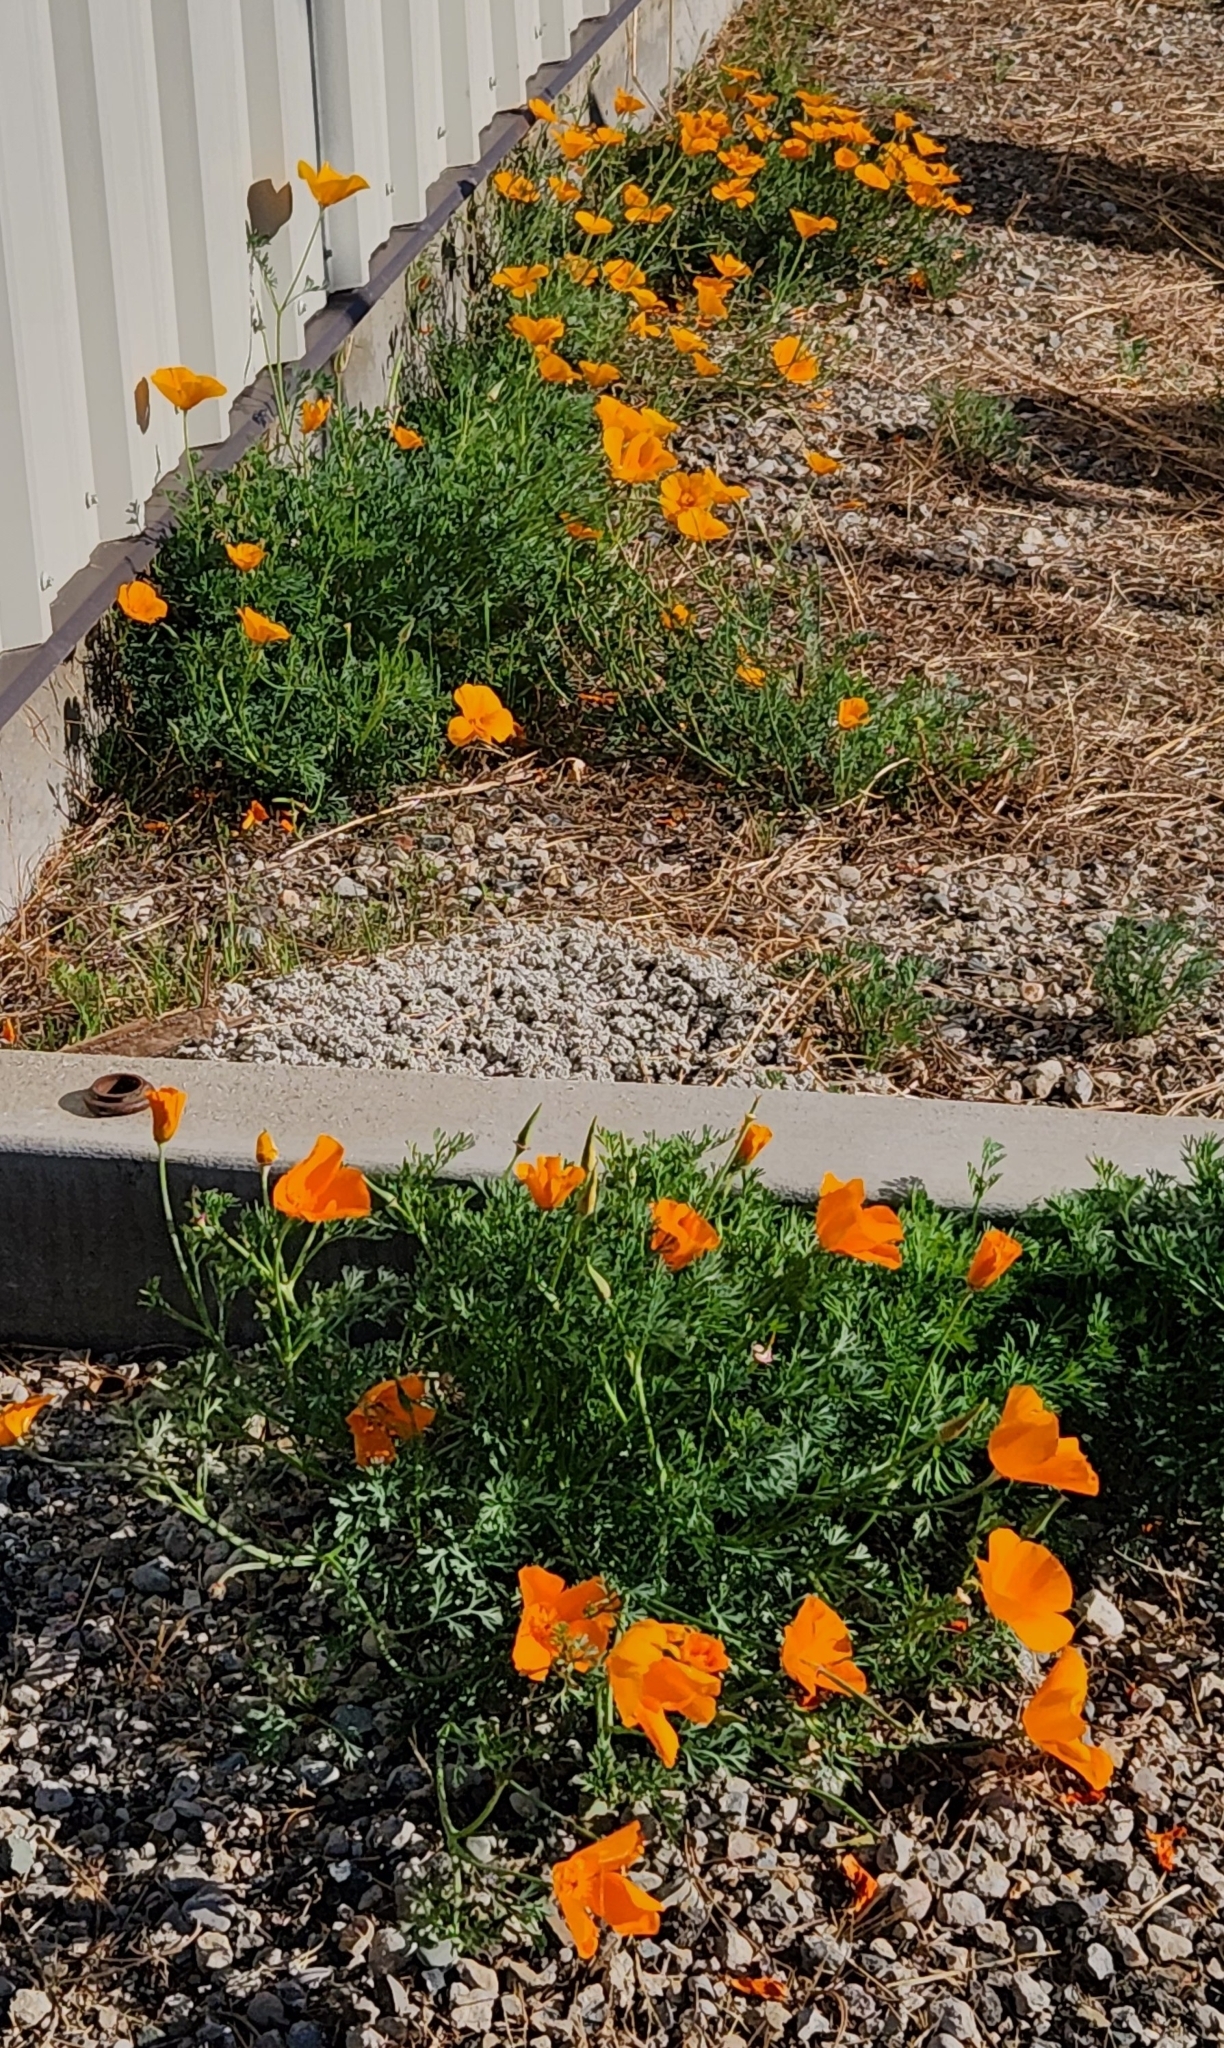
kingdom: Plantae
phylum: Tracheophyta
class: Magnoliopsida
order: Ranunculales
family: Papaveraceae
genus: Eschscholzia
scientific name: Eschscholzia californica
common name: California poppy
